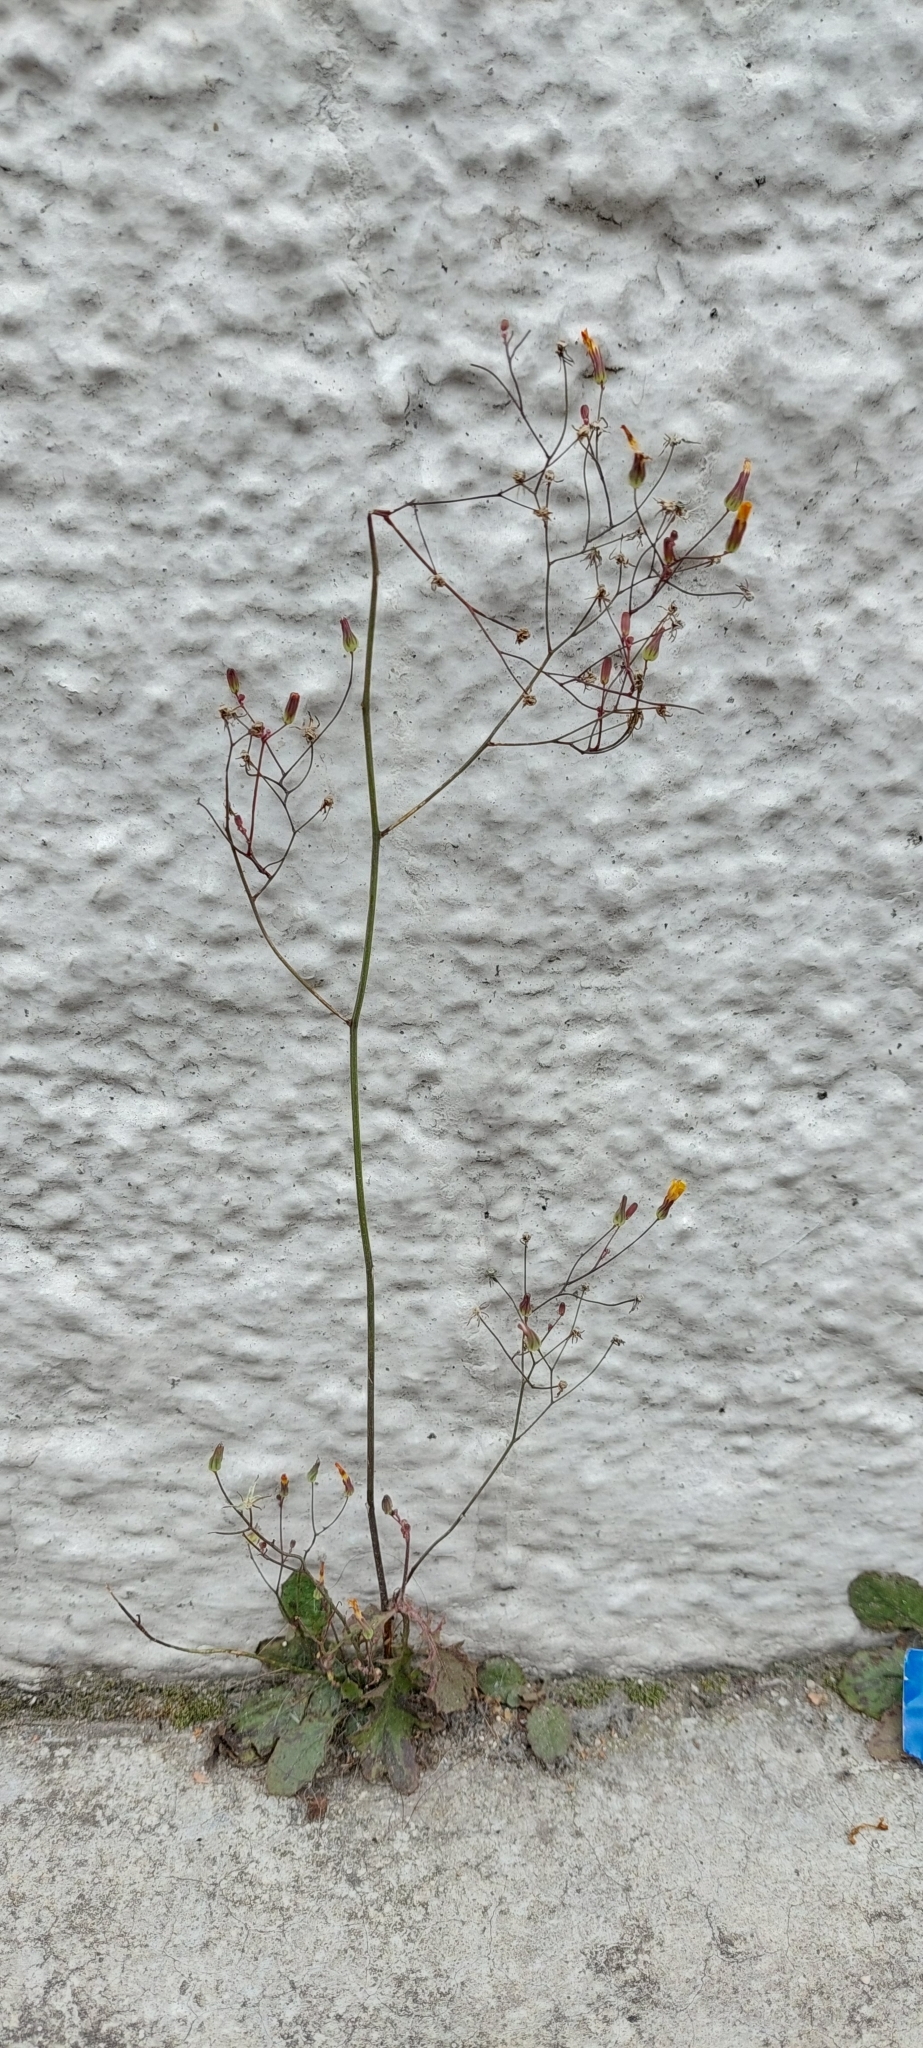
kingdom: Plantae
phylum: Tracheophyta
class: Magnoliopsida
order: Asterales
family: Asteraceae
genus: Youngia
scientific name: Youngia japonica
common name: Oriental false hawksbeard
